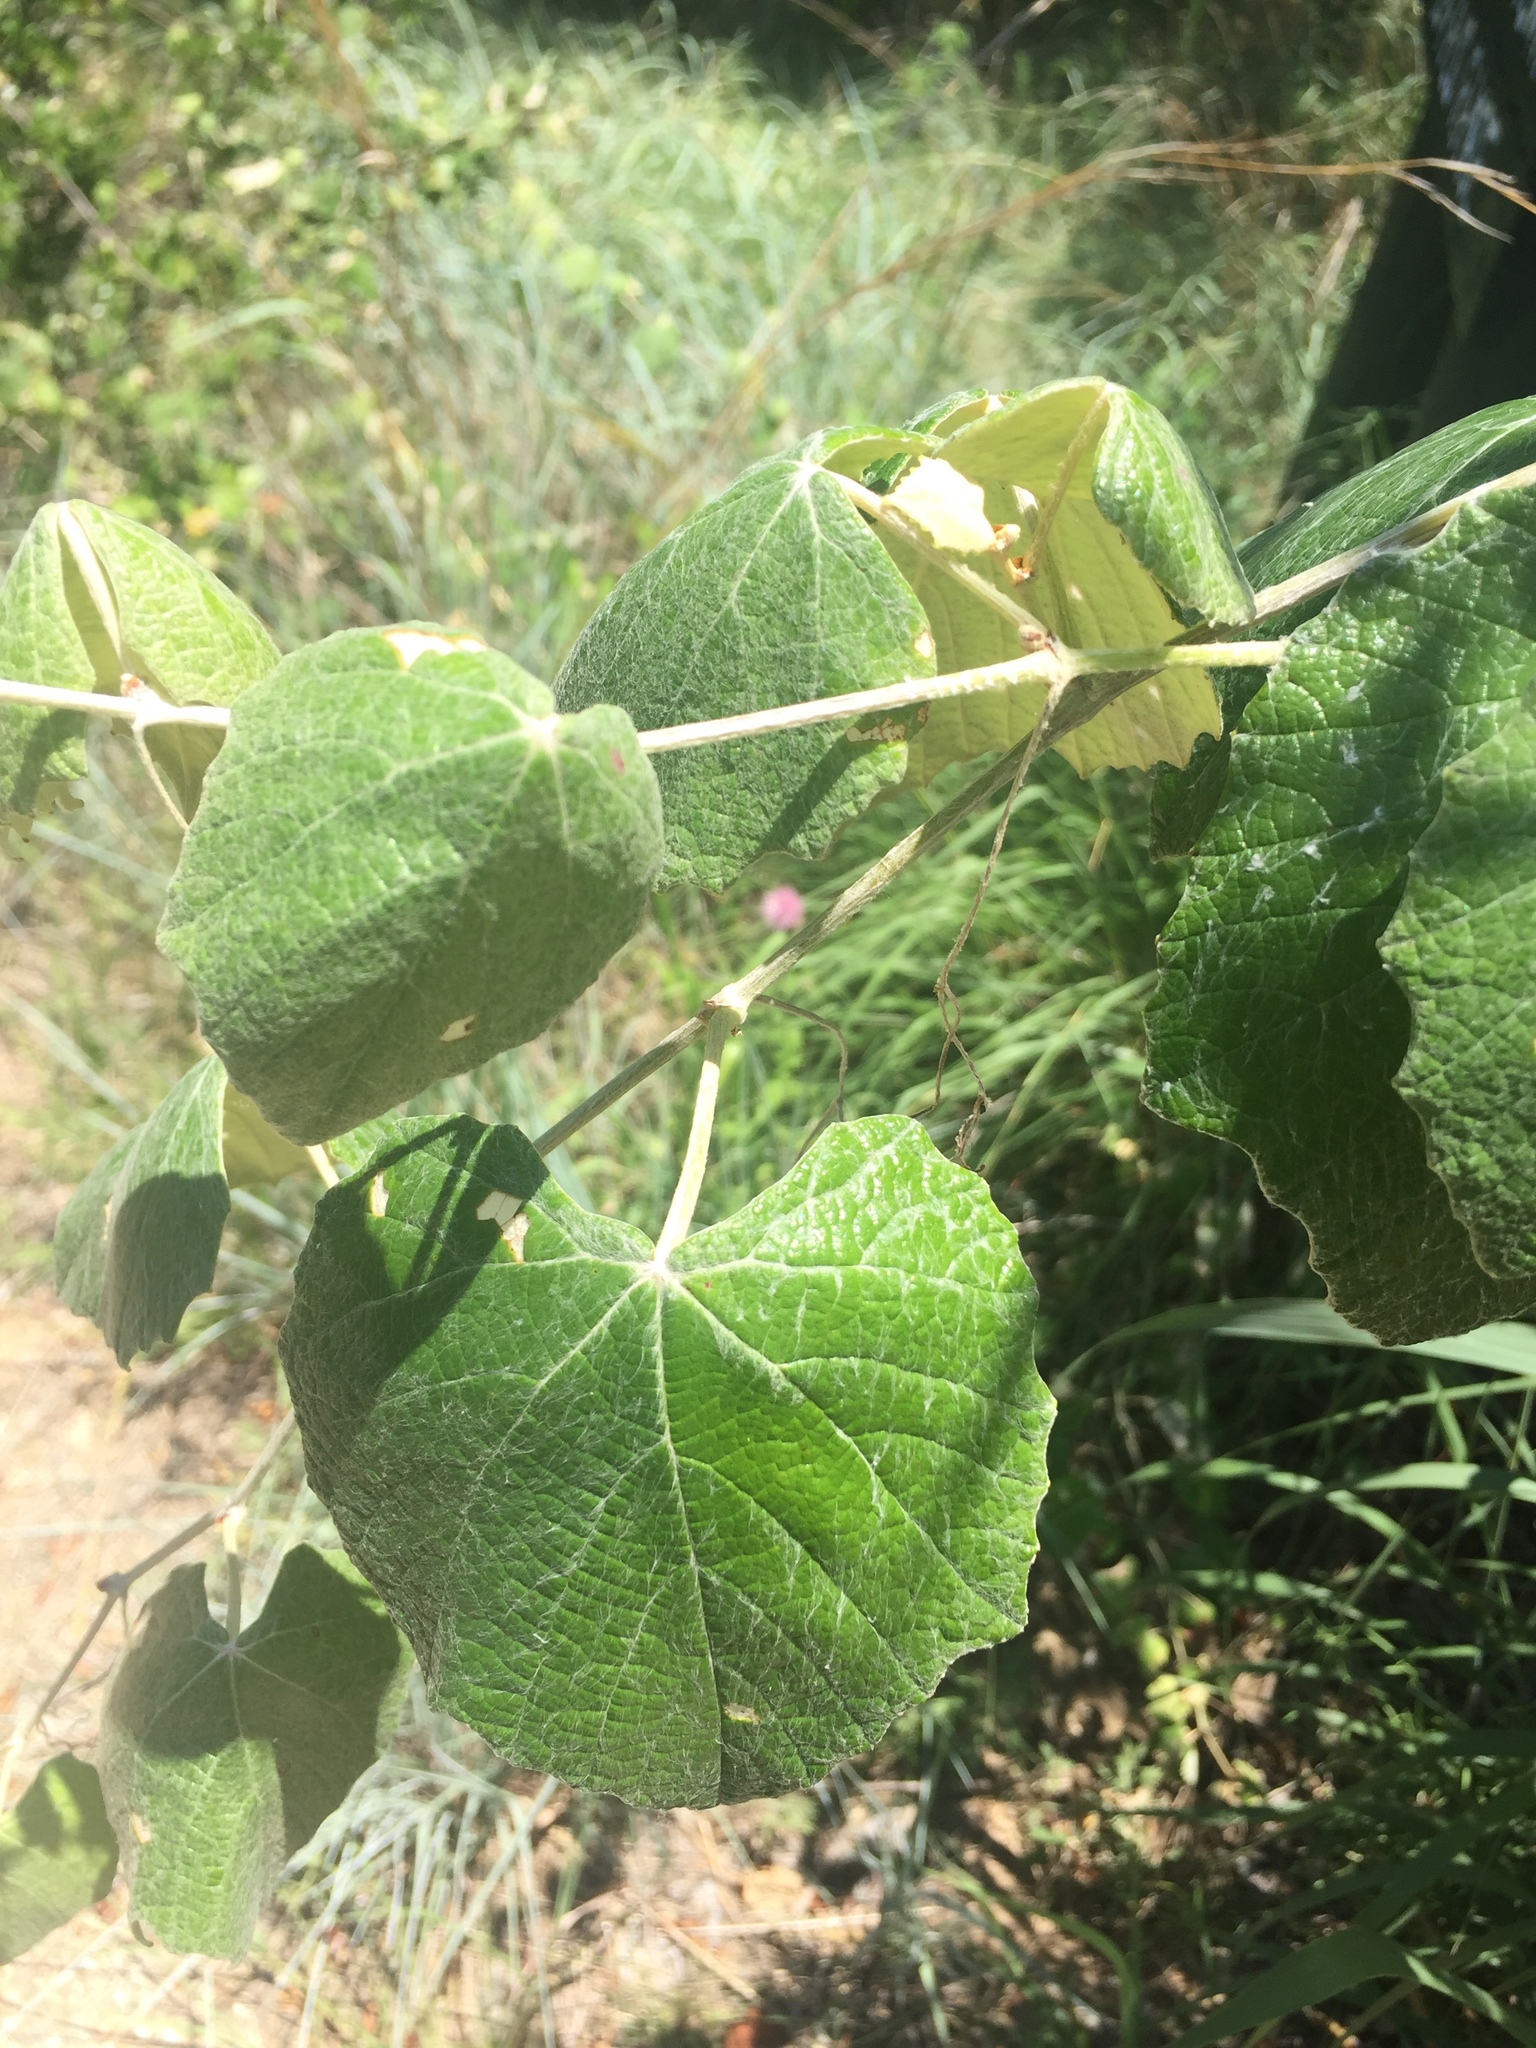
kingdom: Plantae
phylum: Tracheophyta
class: Magnoliopsida
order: Vitales
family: Vitaceae
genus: Vitis
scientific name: Vitis mustangensis
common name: Mustang grape
